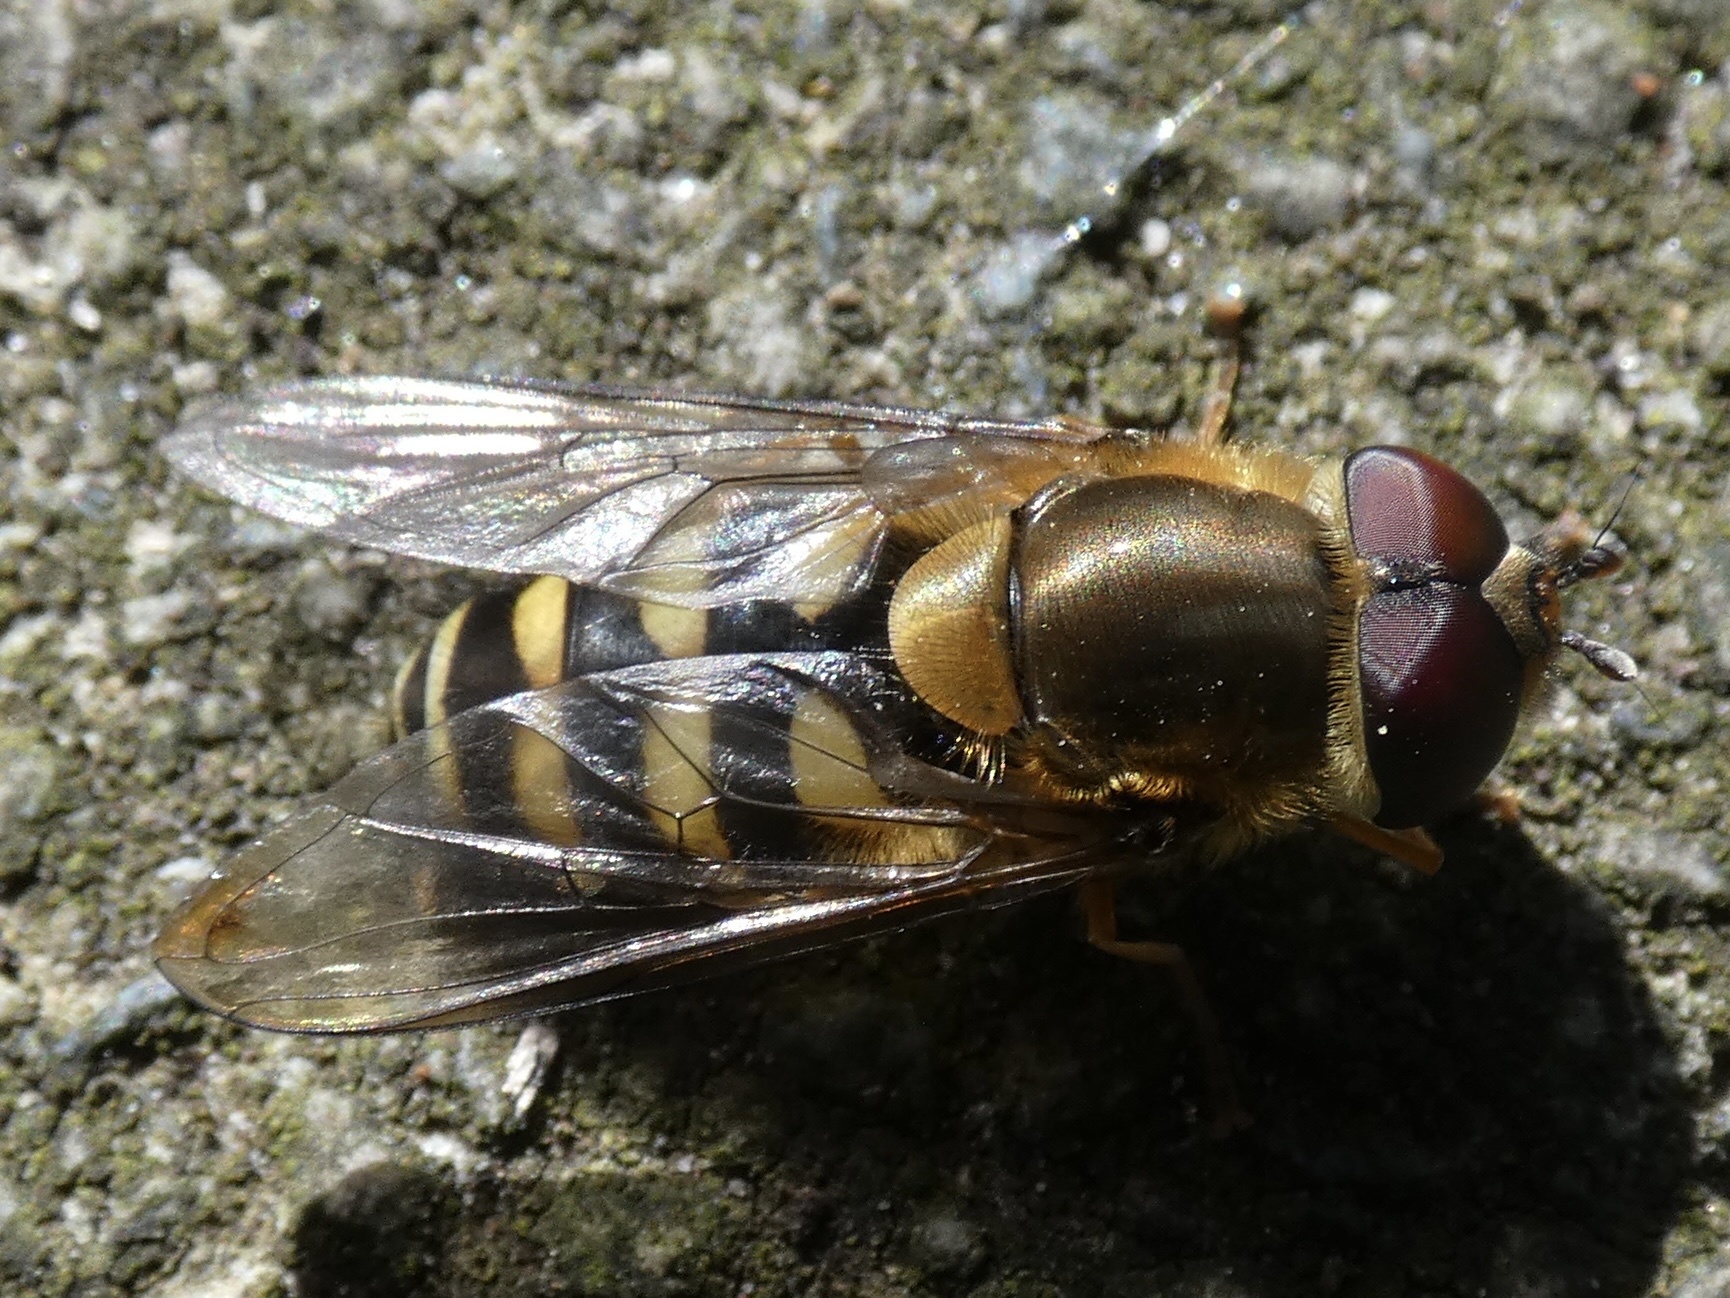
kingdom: Animalia
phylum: Arthropoda
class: Insecta
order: Diptera
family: Syrphidae
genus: Syrphus
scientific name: Syrphus
